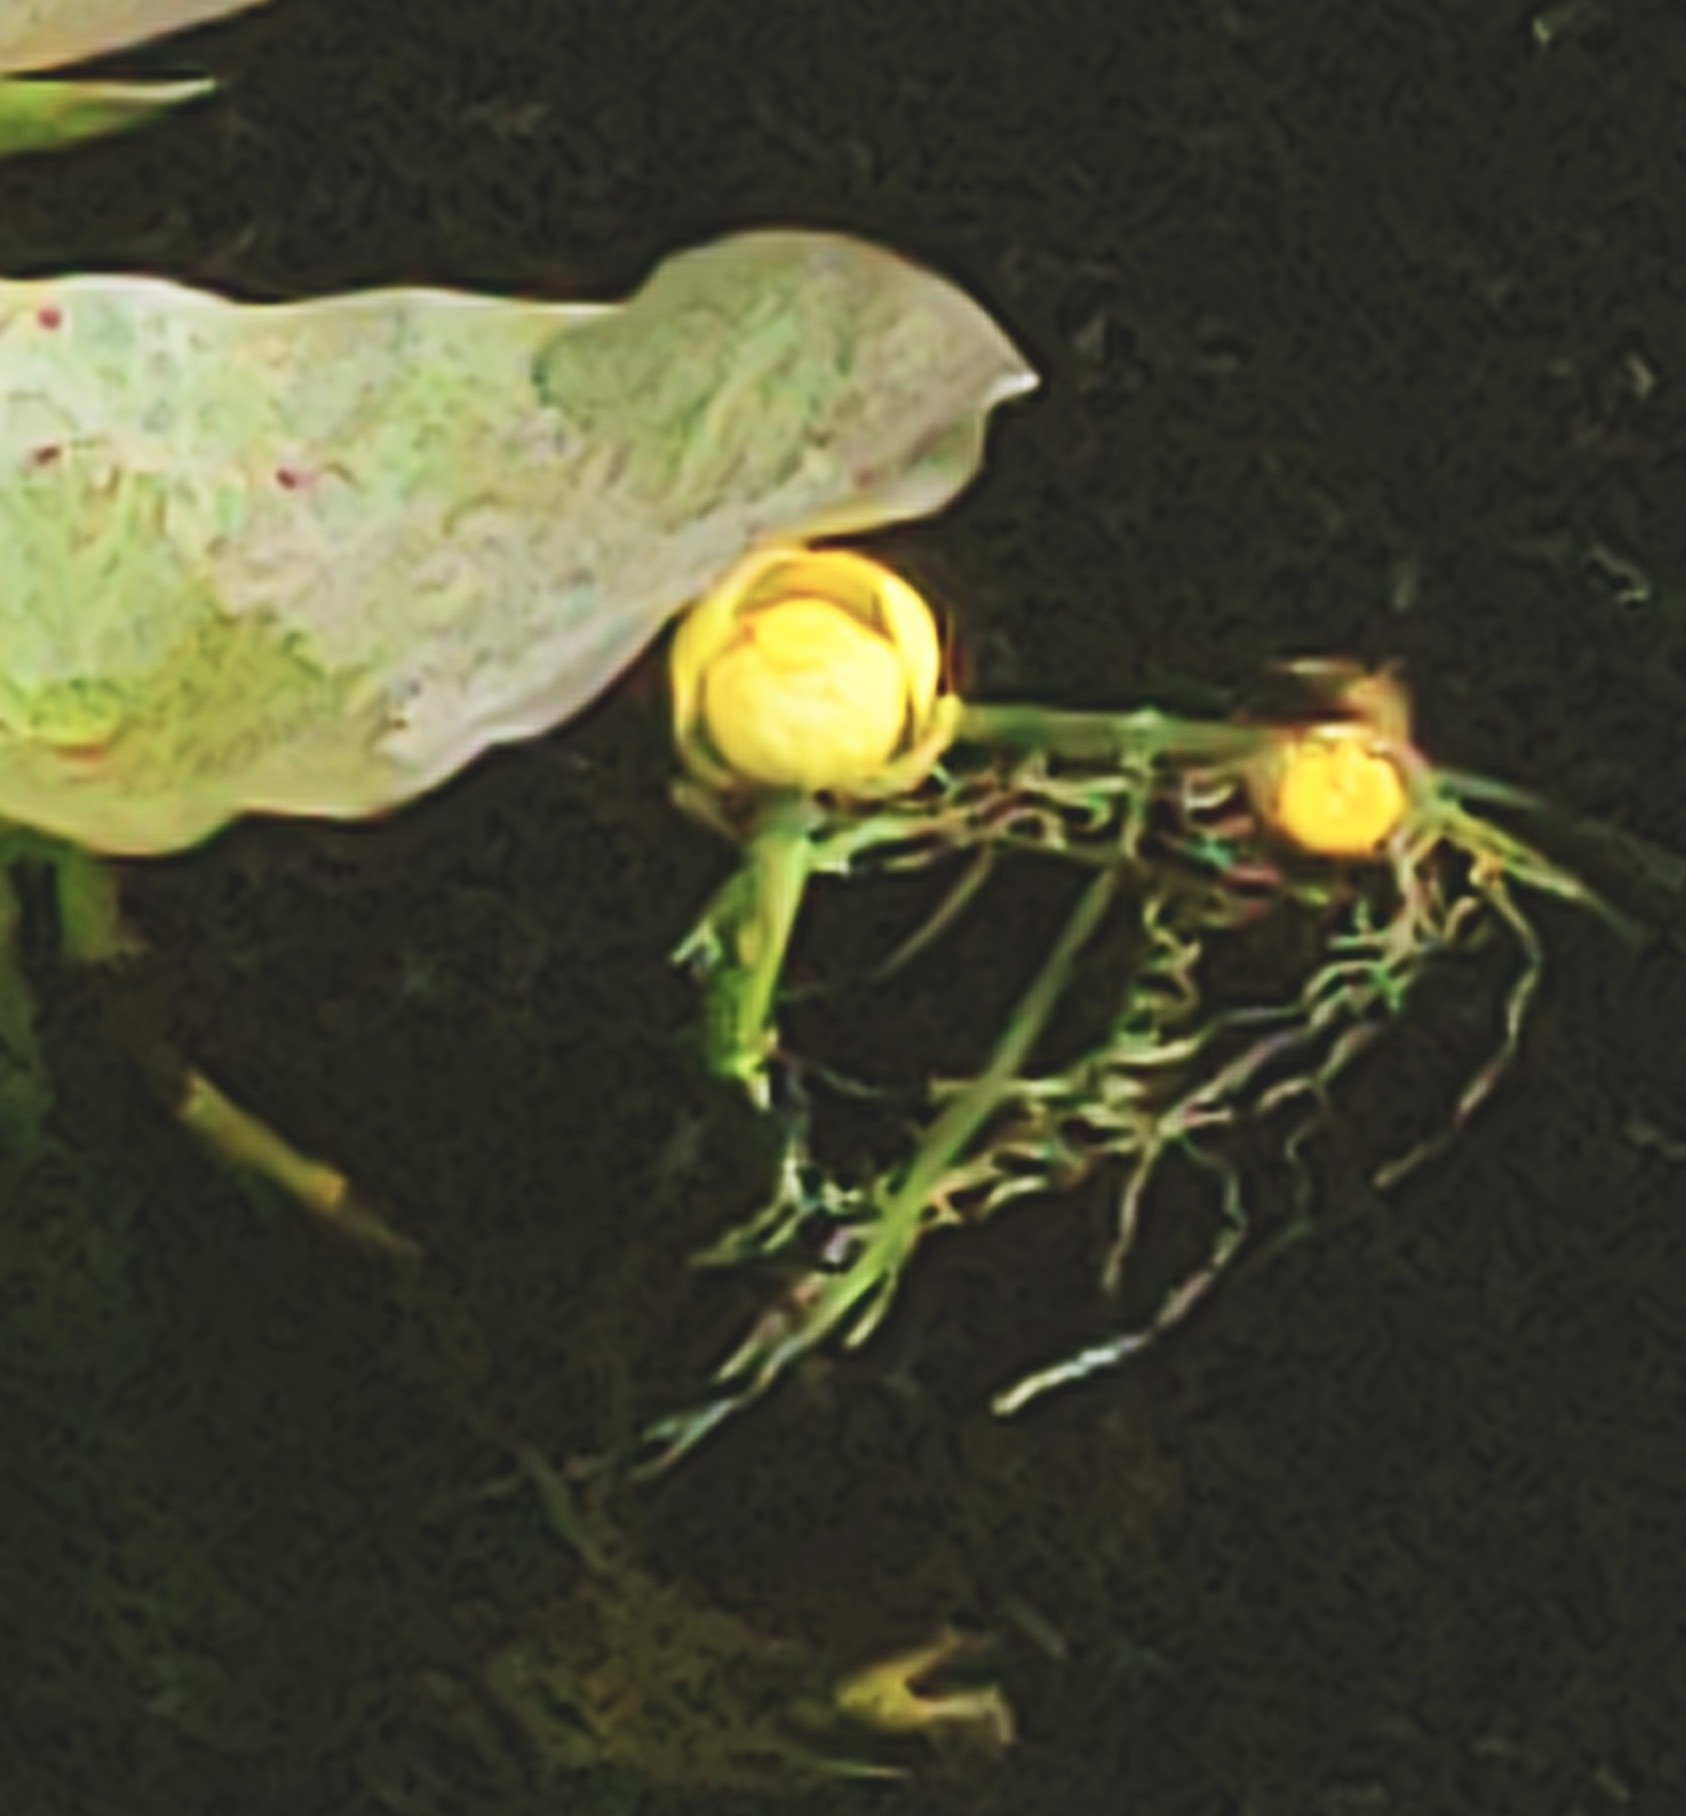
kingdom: Plantae
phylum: Tracheophyta
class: Magnoliopsida
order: Nymphaeales
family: Nymphaeaceae
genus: Nuphar
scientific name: Nuphar advena
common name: Spatter-dock
